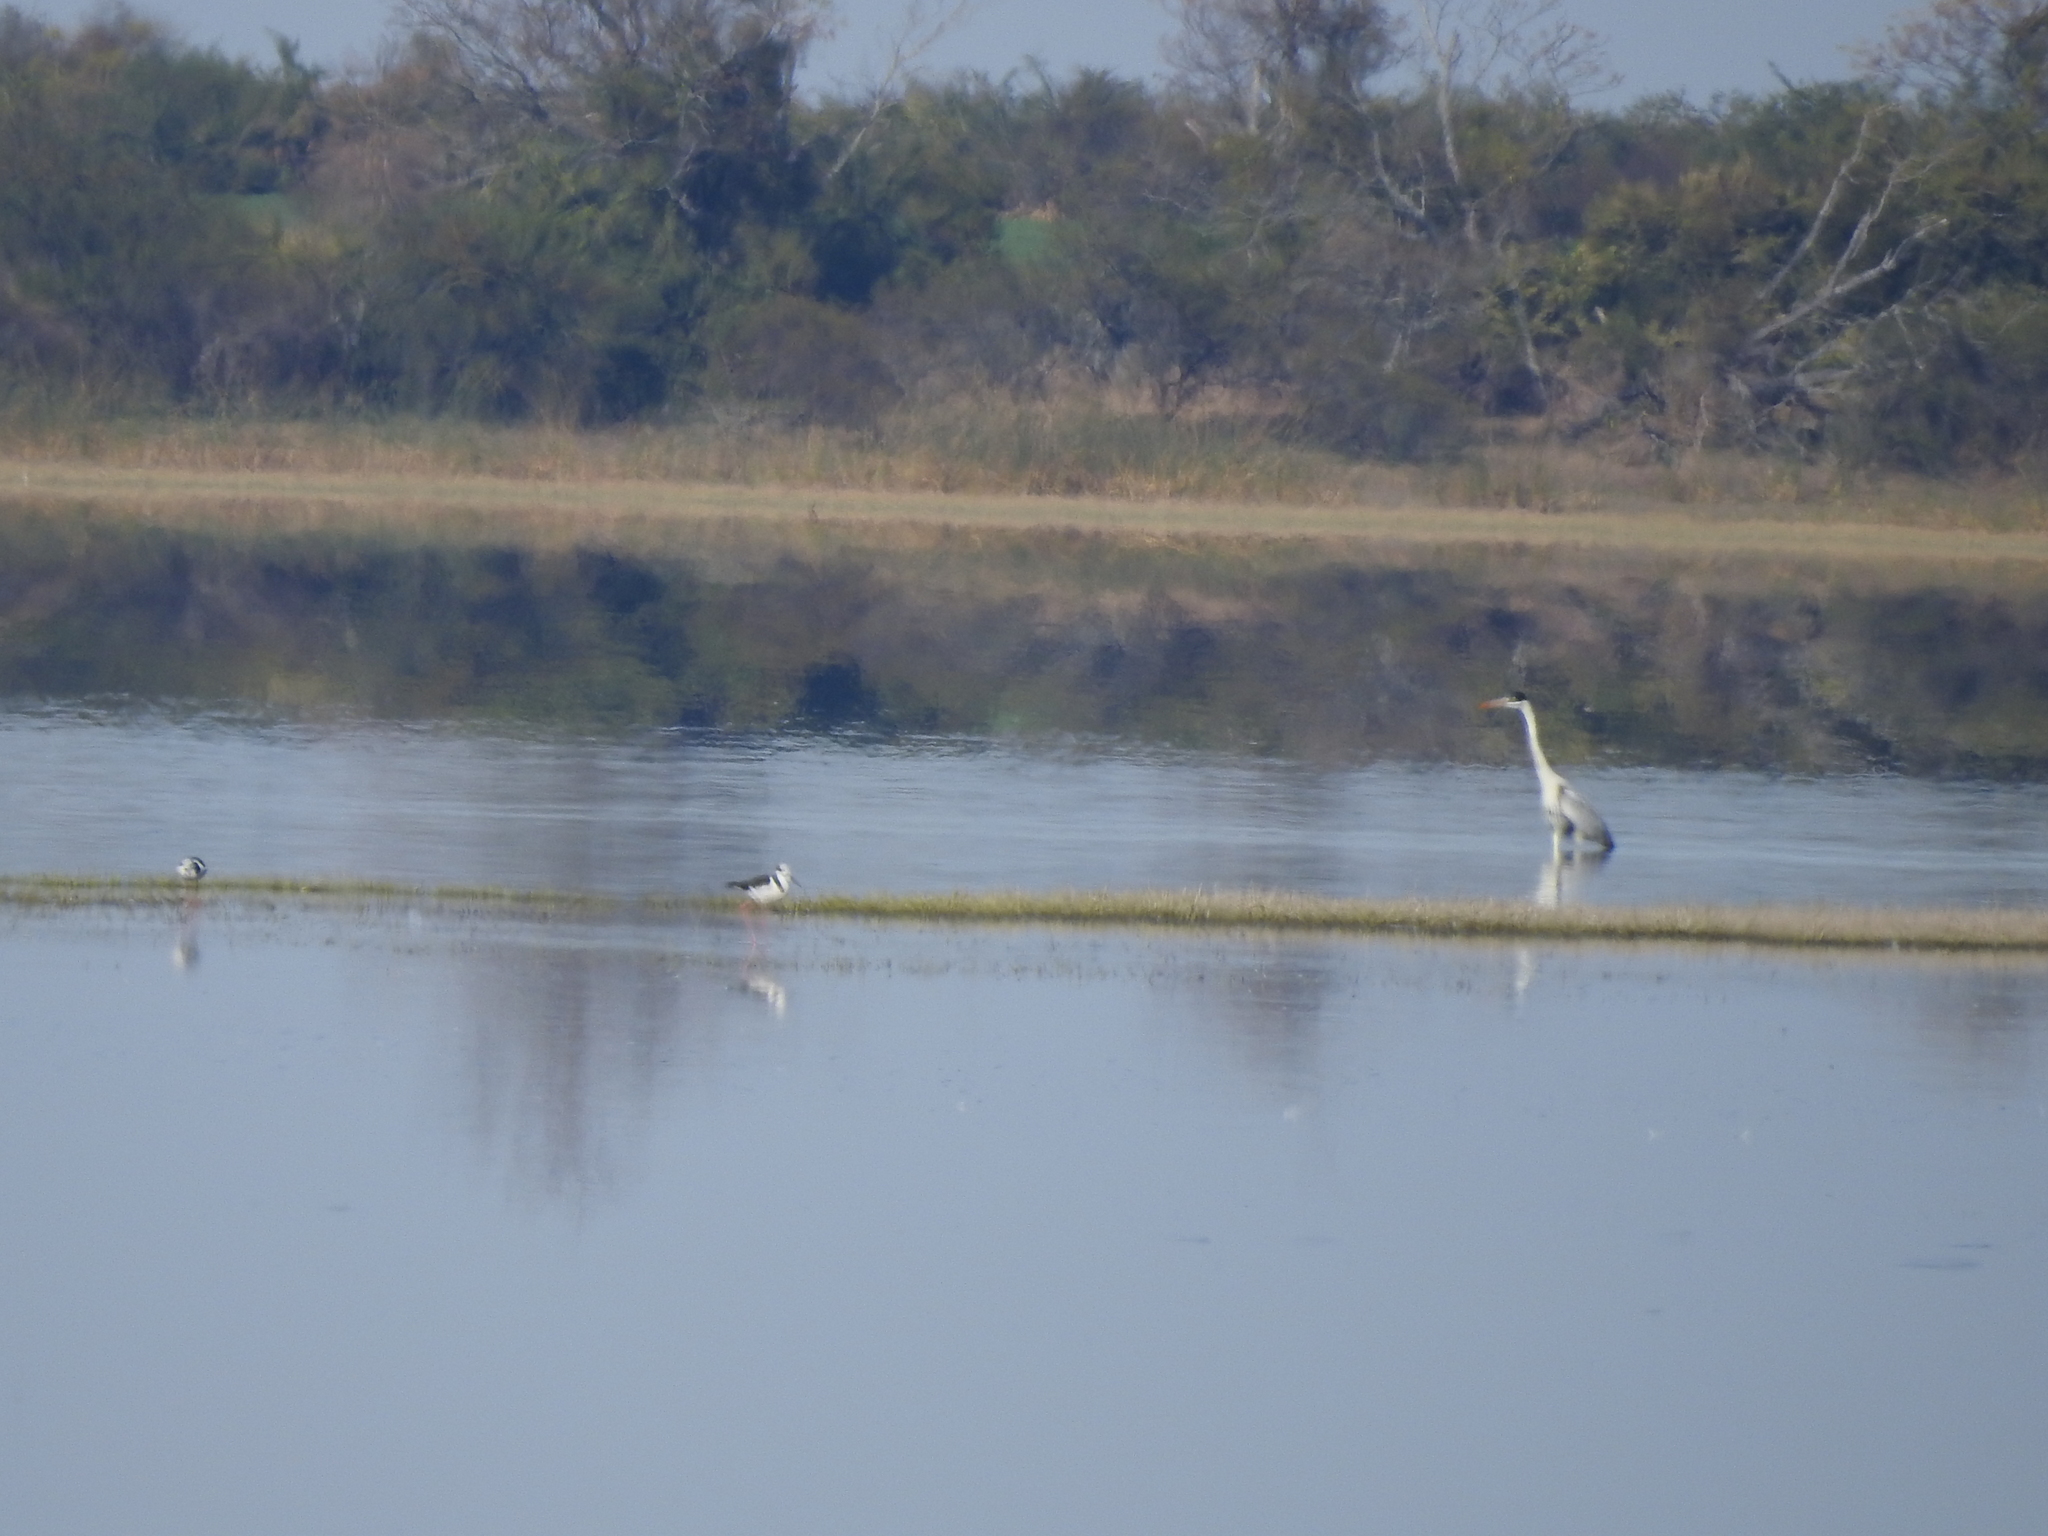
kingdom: Animalia
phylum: Chordata
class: Aves
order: Charadriiformes
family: Recurvirostridae
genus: Himantopus
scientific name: Himantopus mexicanus
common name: Black-necked stilt
